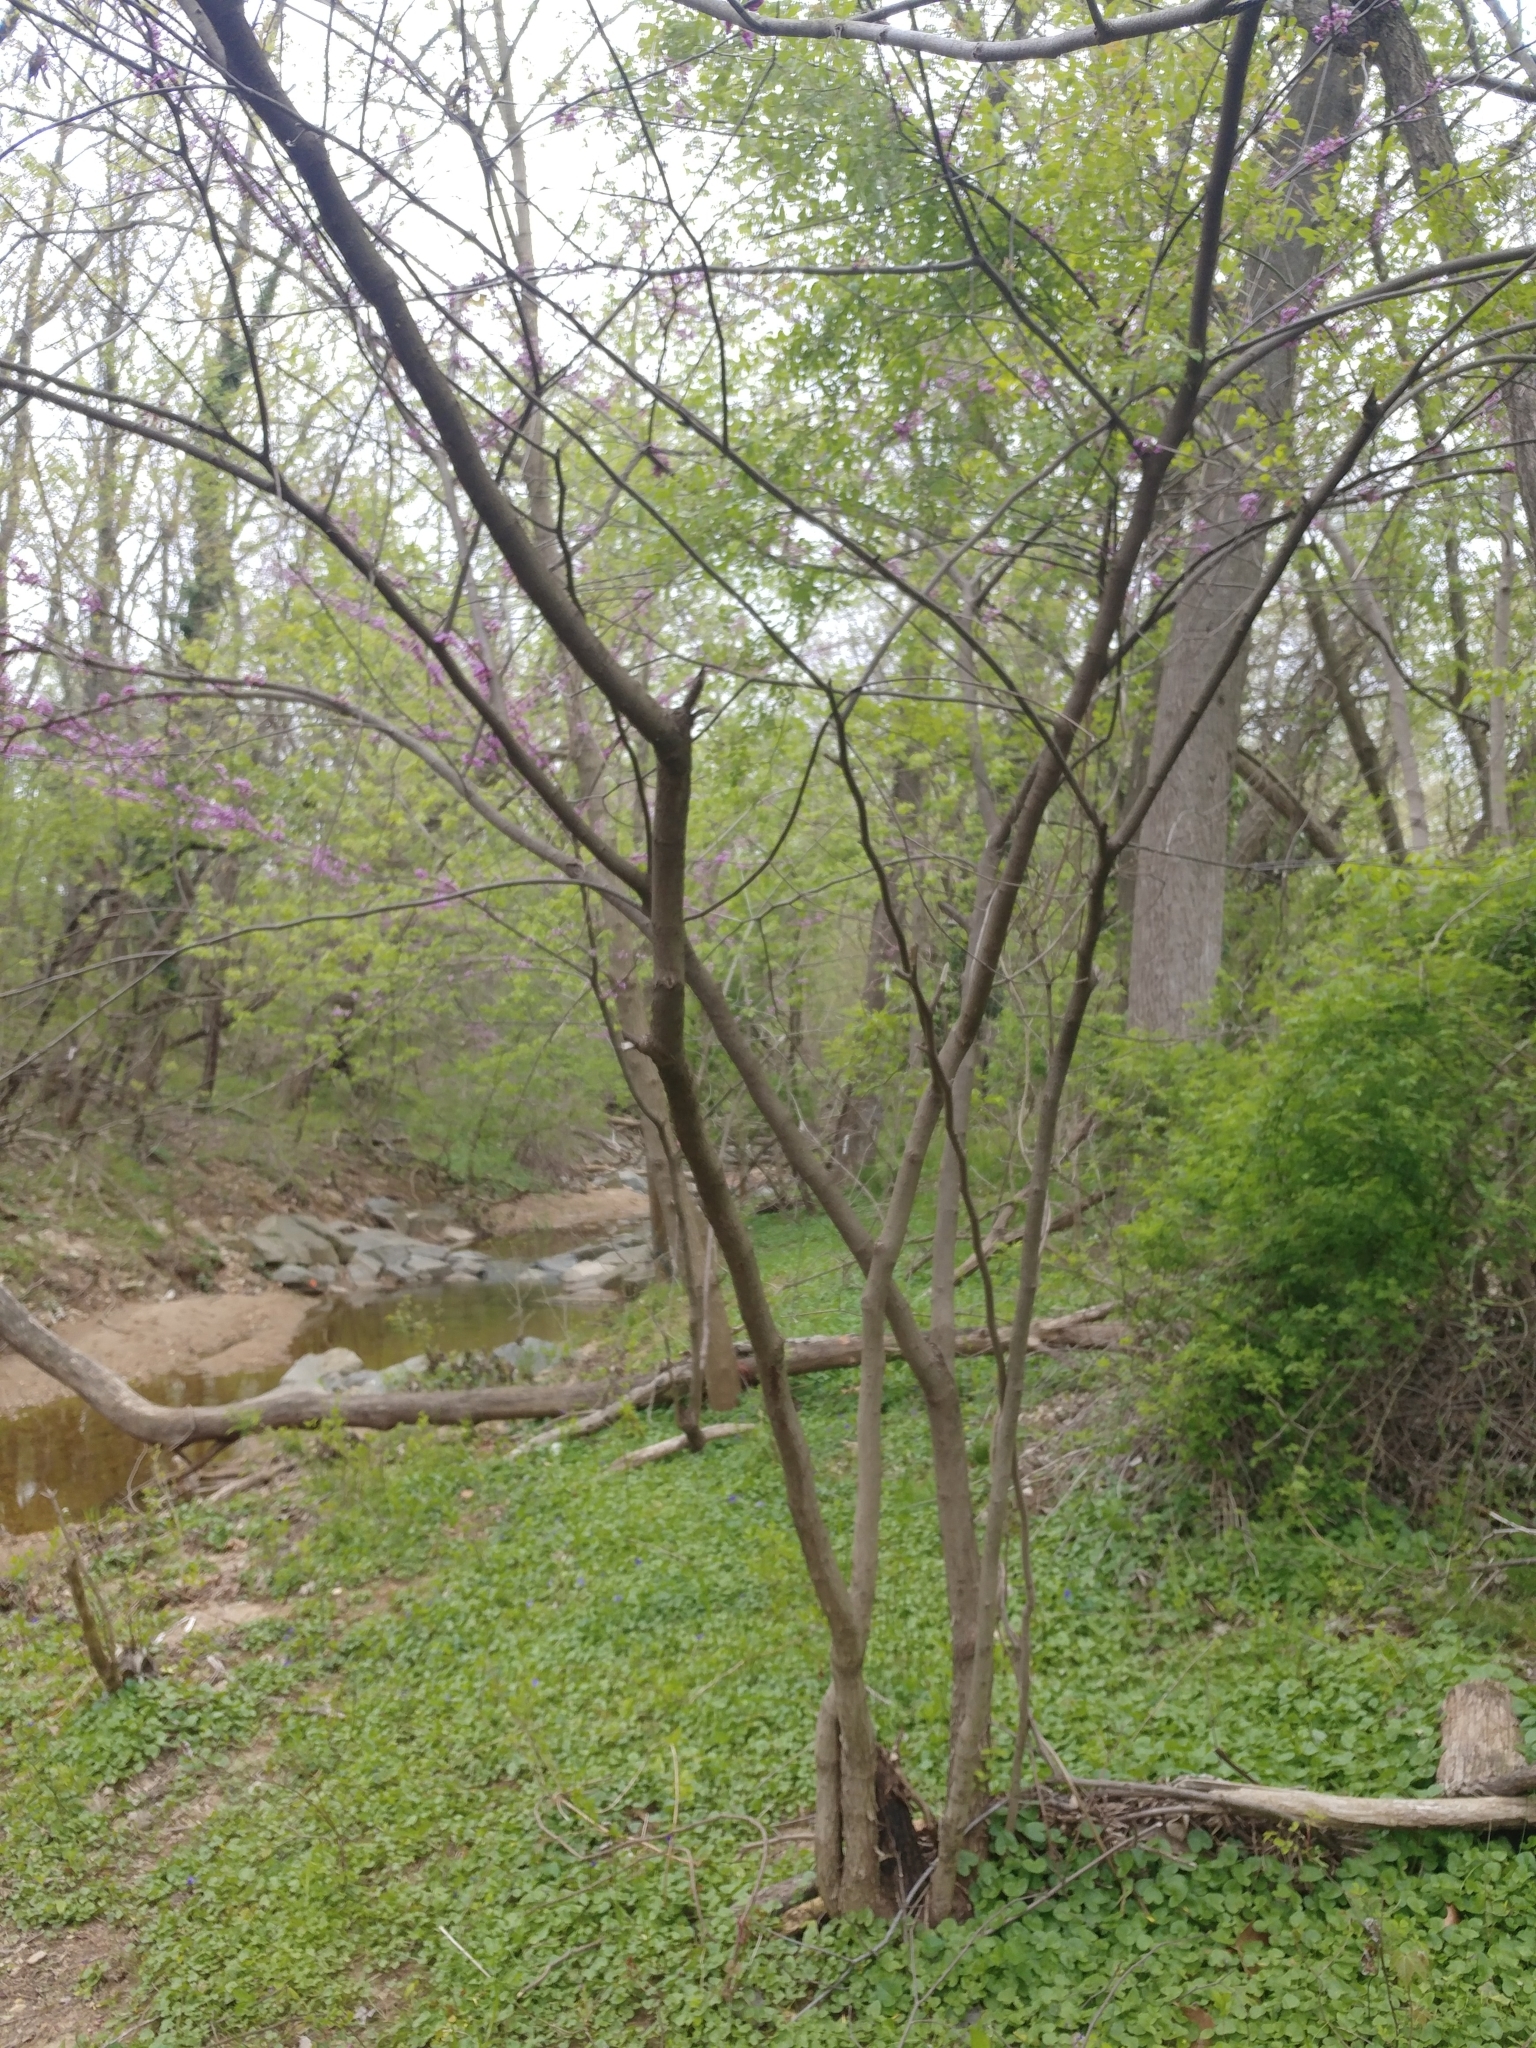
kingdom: Plantae
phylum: Tracheophyta
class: Magnoliopsida
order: Fabales
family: Fabaceae
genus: Cercis
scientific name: Cercis canadensis
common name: Eastern redbud
